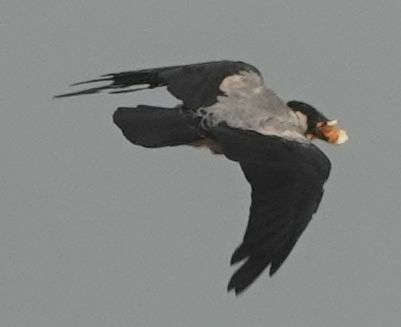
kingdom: Animalia
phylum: Chordata
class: Aves
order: Passeriformes
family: Corvidae
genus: Corvus
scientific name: Corvus cornix
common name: Hooded crow
